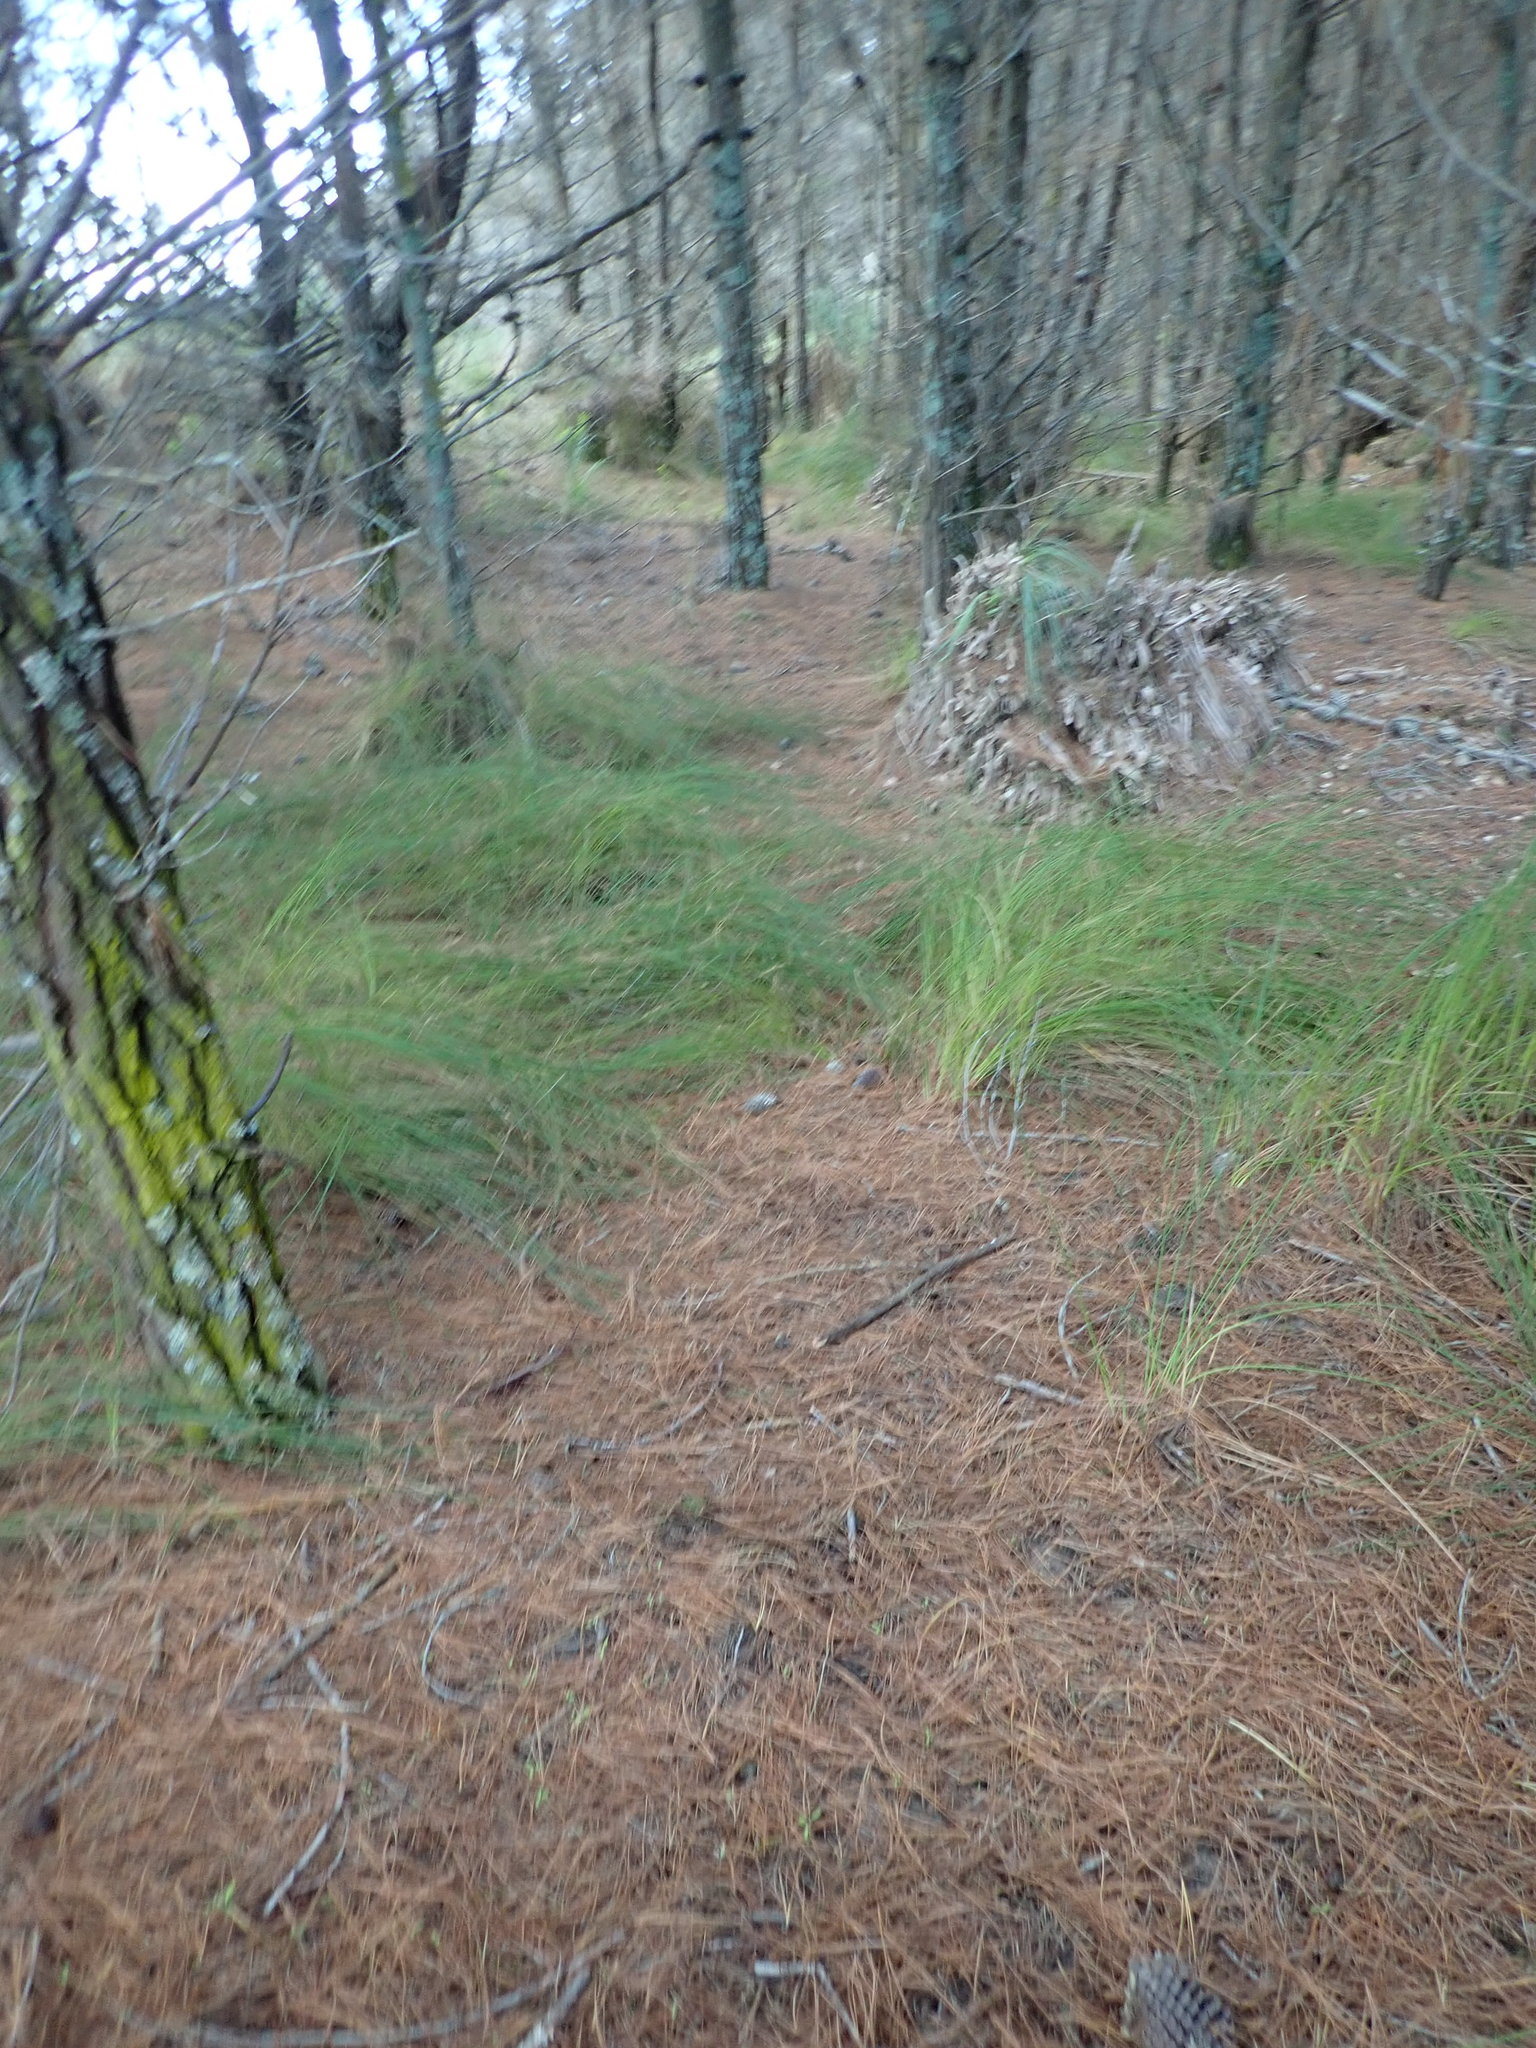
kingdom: Plantae
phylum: Tracheophyta
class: Liliopsida
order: Poales
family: Cyperaceae
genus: Ficinia
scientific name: Ficinia nodosa
